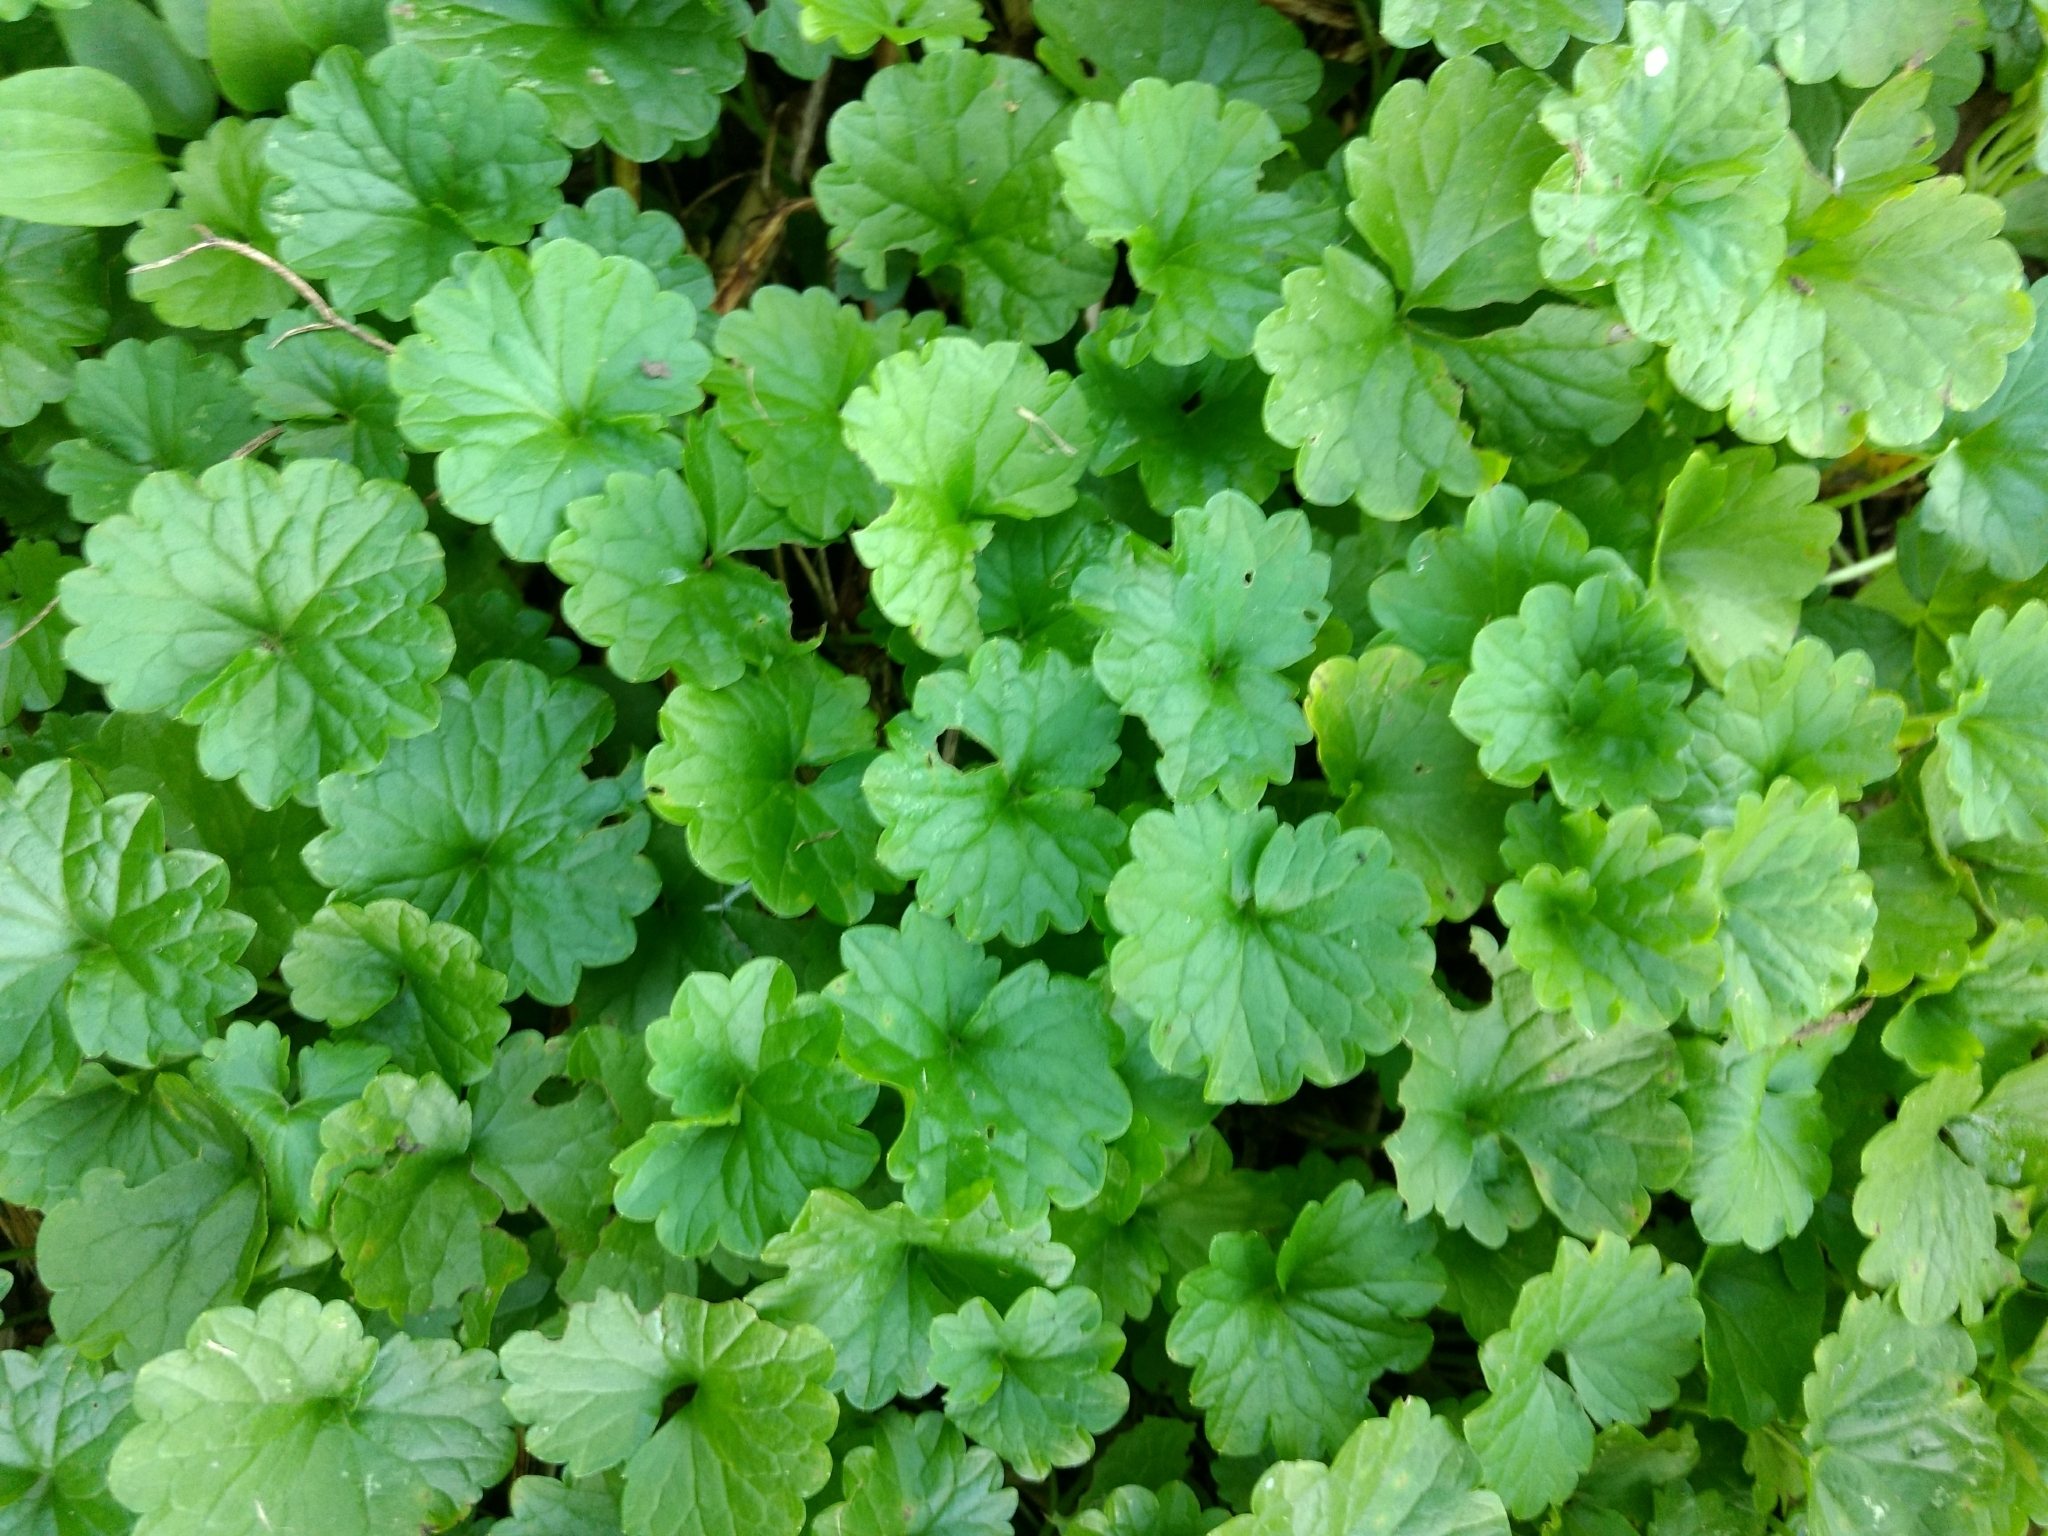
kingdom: Plantae
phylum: Tracheophyta
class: Magnoliopsida
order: Lamiales
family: Lamiaceae
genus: Glechoma
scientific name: Glechoma hederacea
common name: Ground ivy
